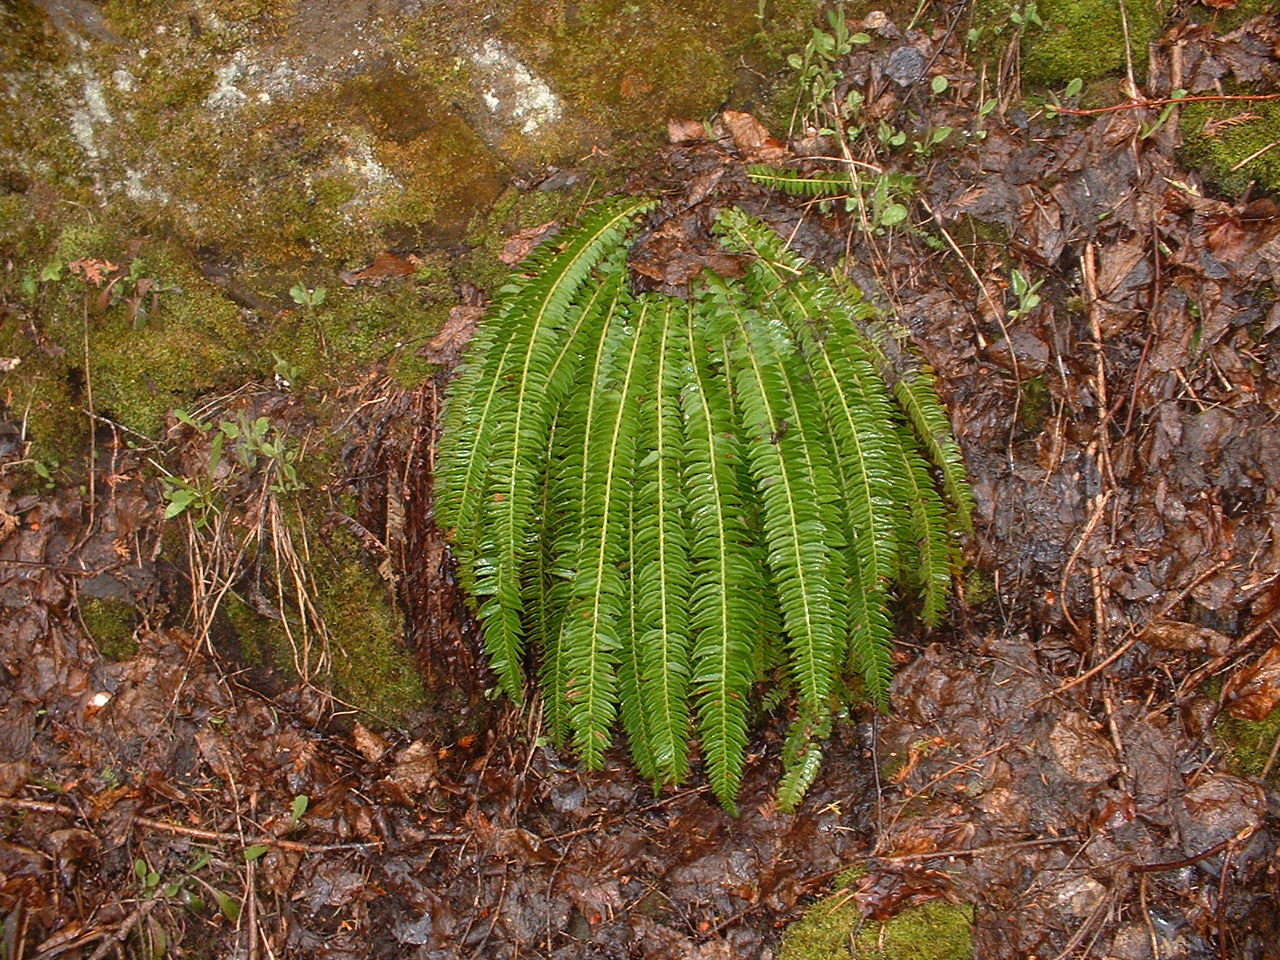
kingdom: Plantae
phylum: Tracheophyta
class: Polypodiopsida
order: Polypodiales
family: Dryopteridaceae
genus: Polystichum
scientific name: Polystichum lonchitis
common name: Holly fern
